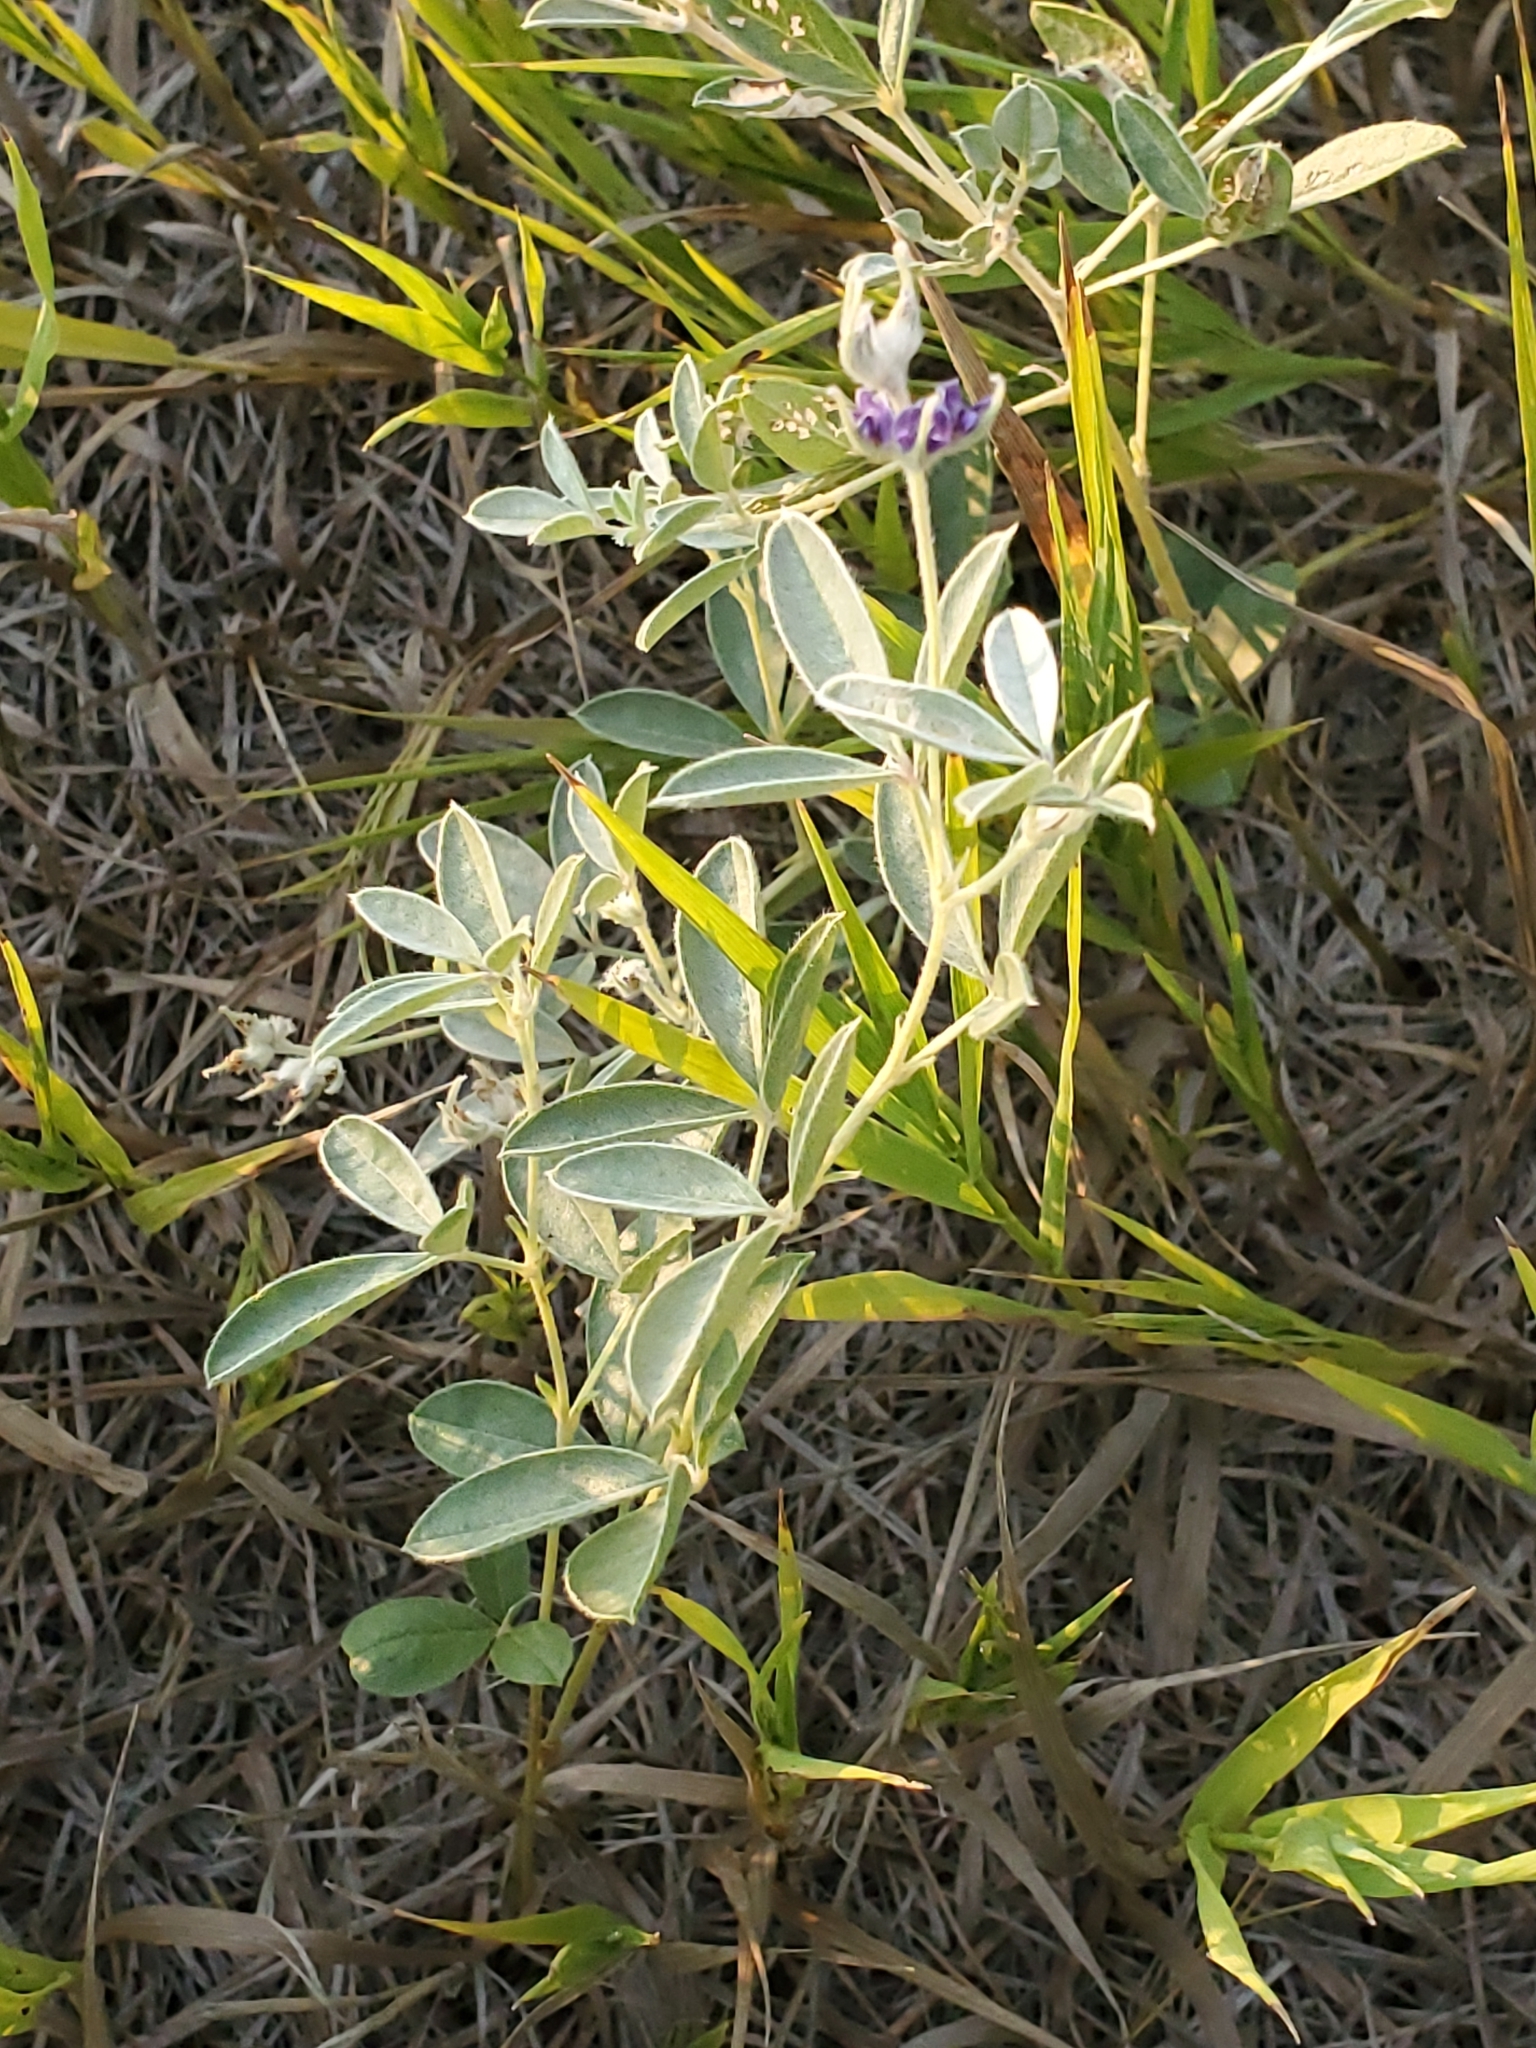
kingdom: Plantae
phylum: Tracheophyta
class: Magnoliopsida
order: Fabales
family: Fabaceae
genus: Pediomelum
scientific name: Pediomelum argophyllum
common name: Silver-leaved indian breadroot
